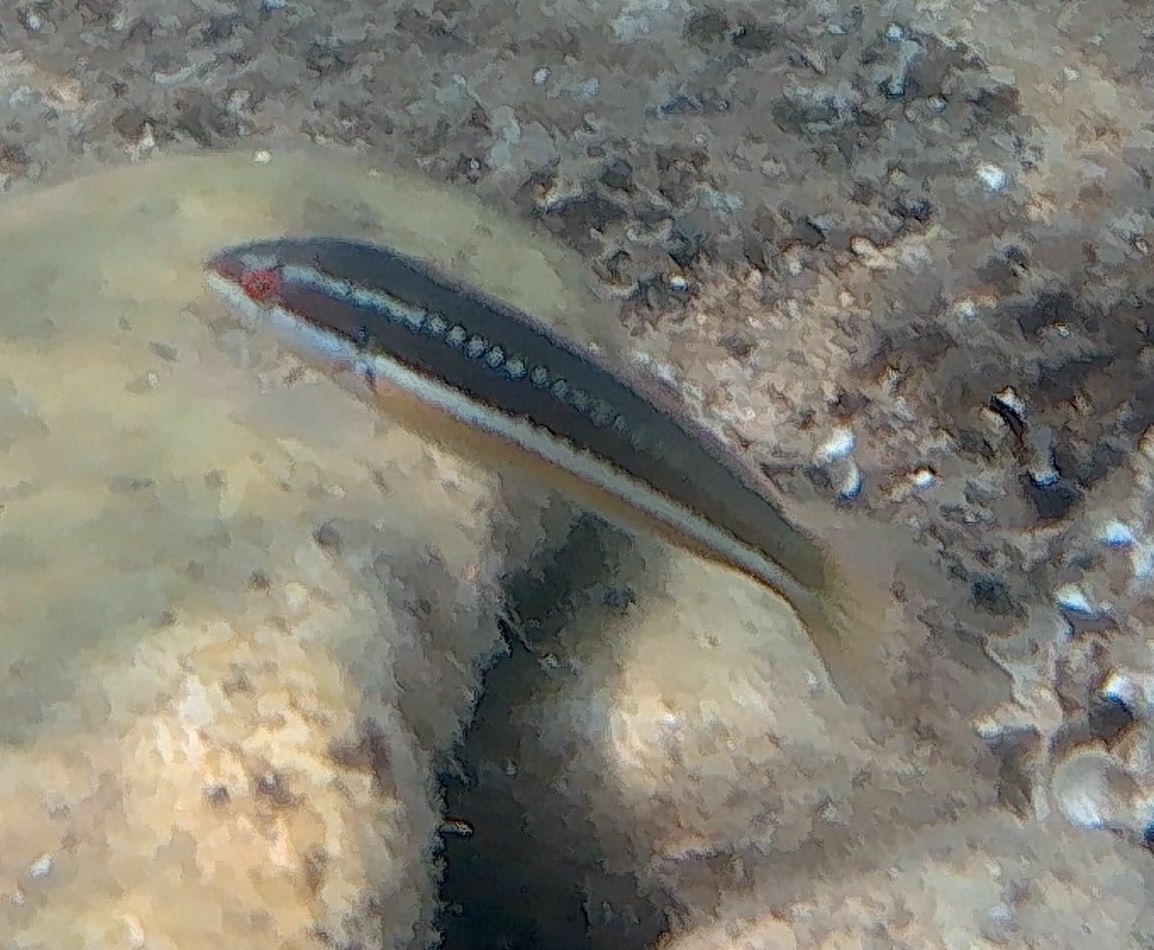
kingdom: Animalia
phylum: Chordata
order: Perciformes
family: Labridae
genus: Coris
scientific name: Coris julis
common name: Rainbow wrasse
